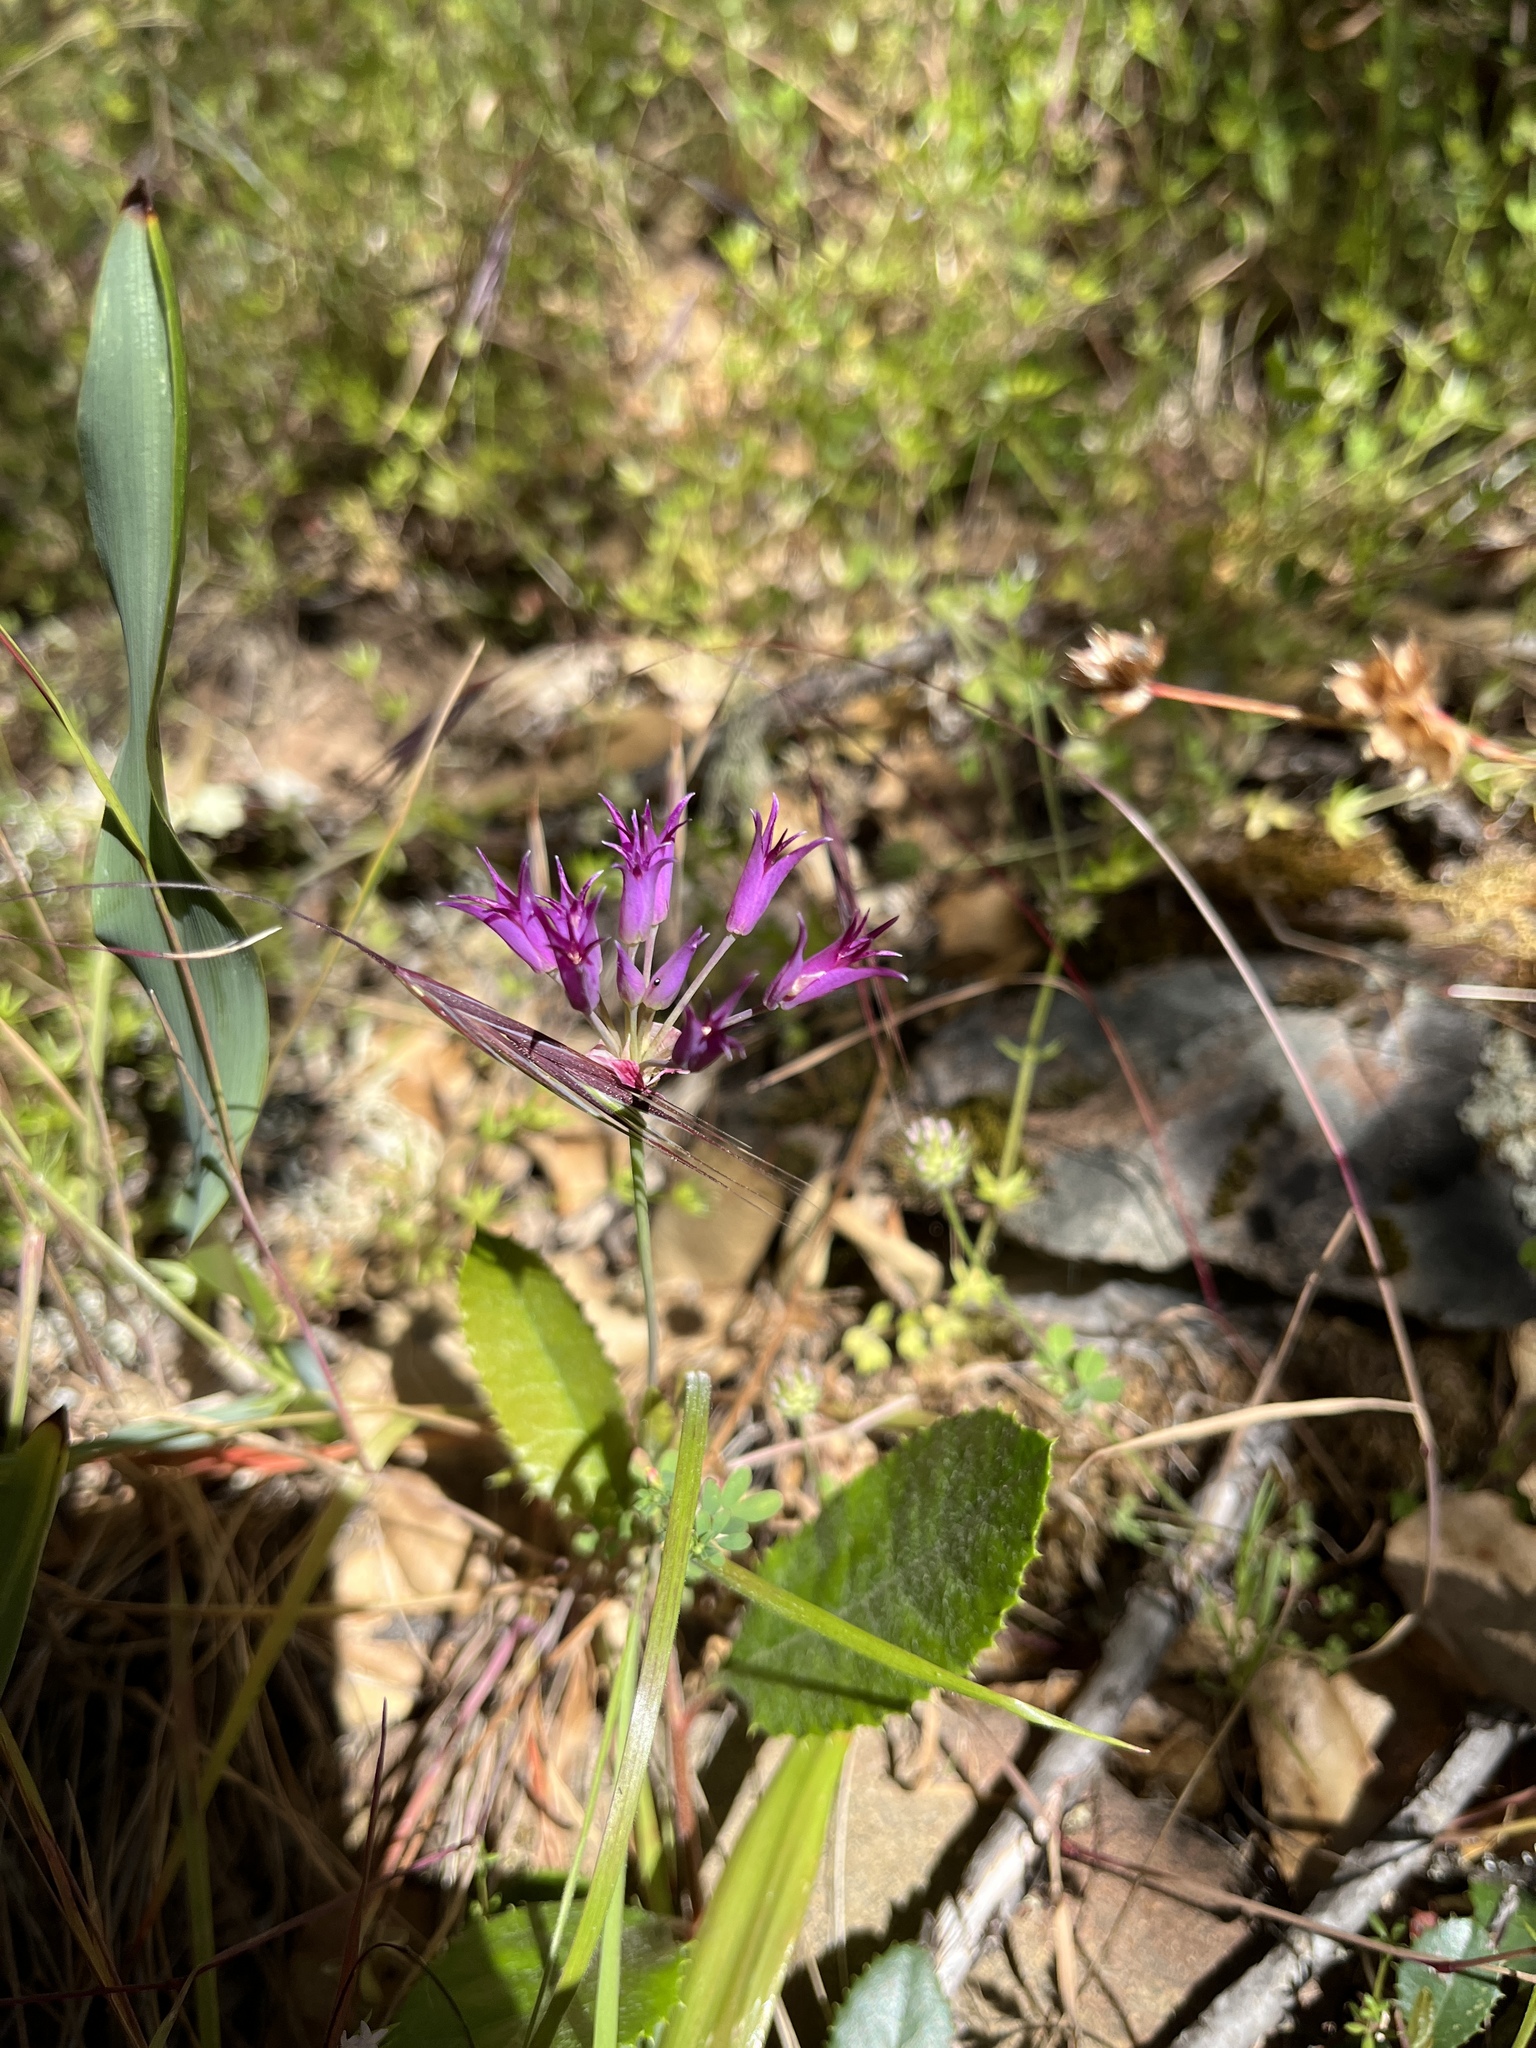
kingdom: Plantae
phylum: Tracheophyta
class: Liliopsida
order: Asparagales
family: Amaryllidaceae
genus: Allium
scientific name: Allium peninsulare
